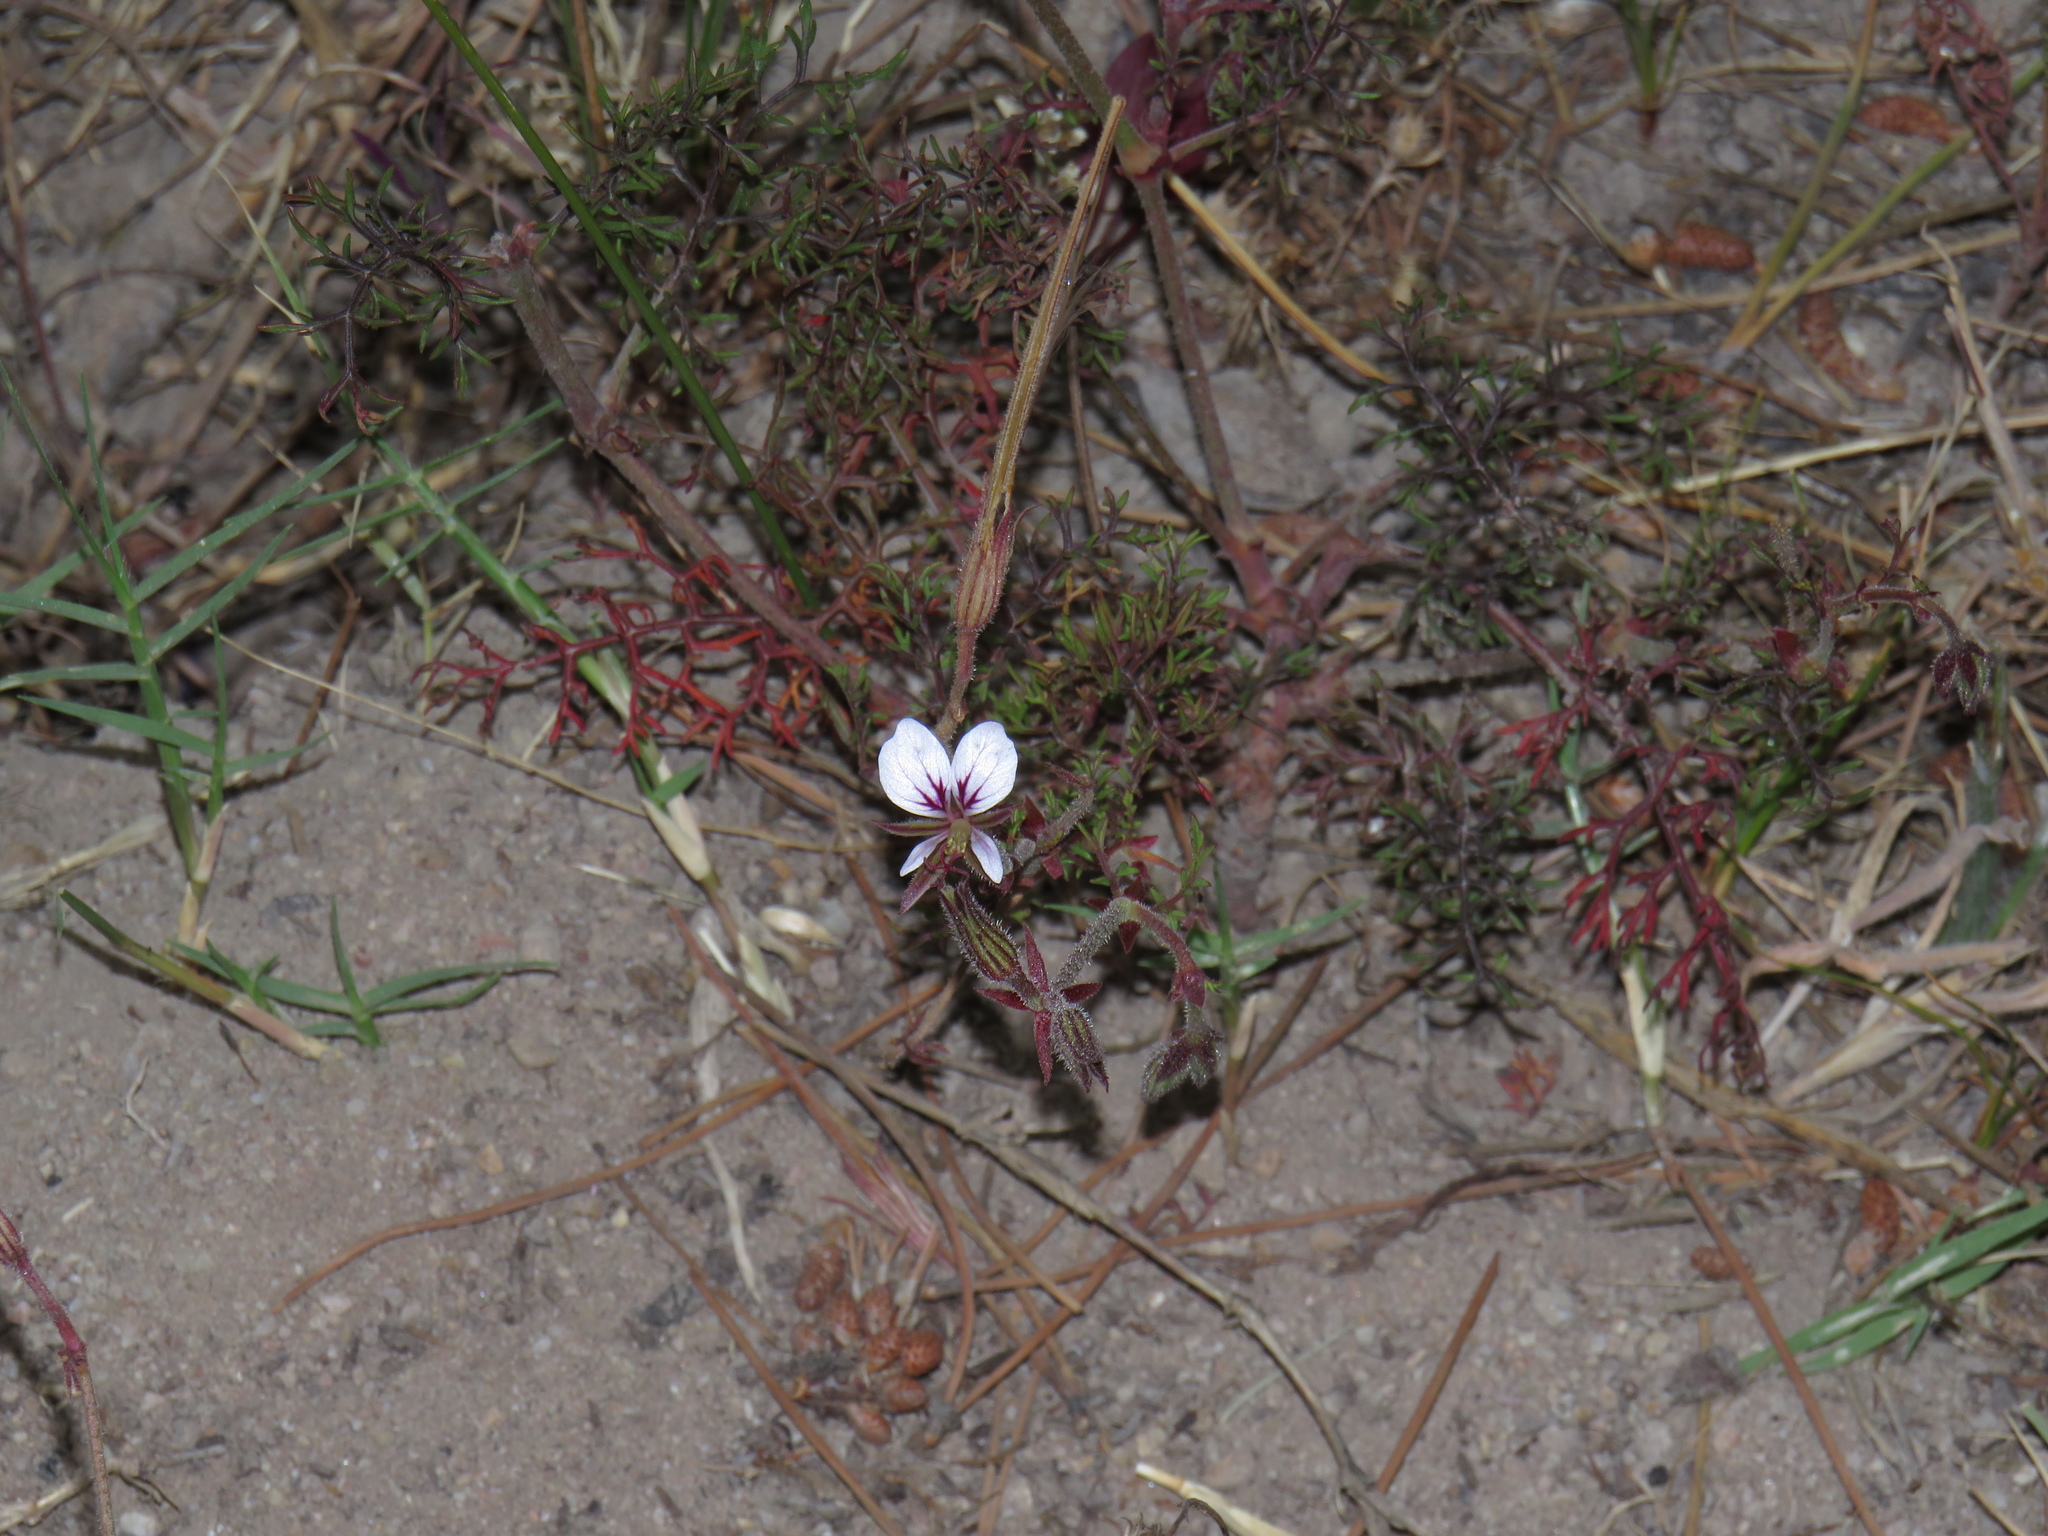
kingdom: Plantae
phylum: Tracheophyta
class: Magnoliopsida
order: Geraniales
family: Geraniaceae
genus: Pelargonium
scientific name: Pelargonium myrrhifolium
